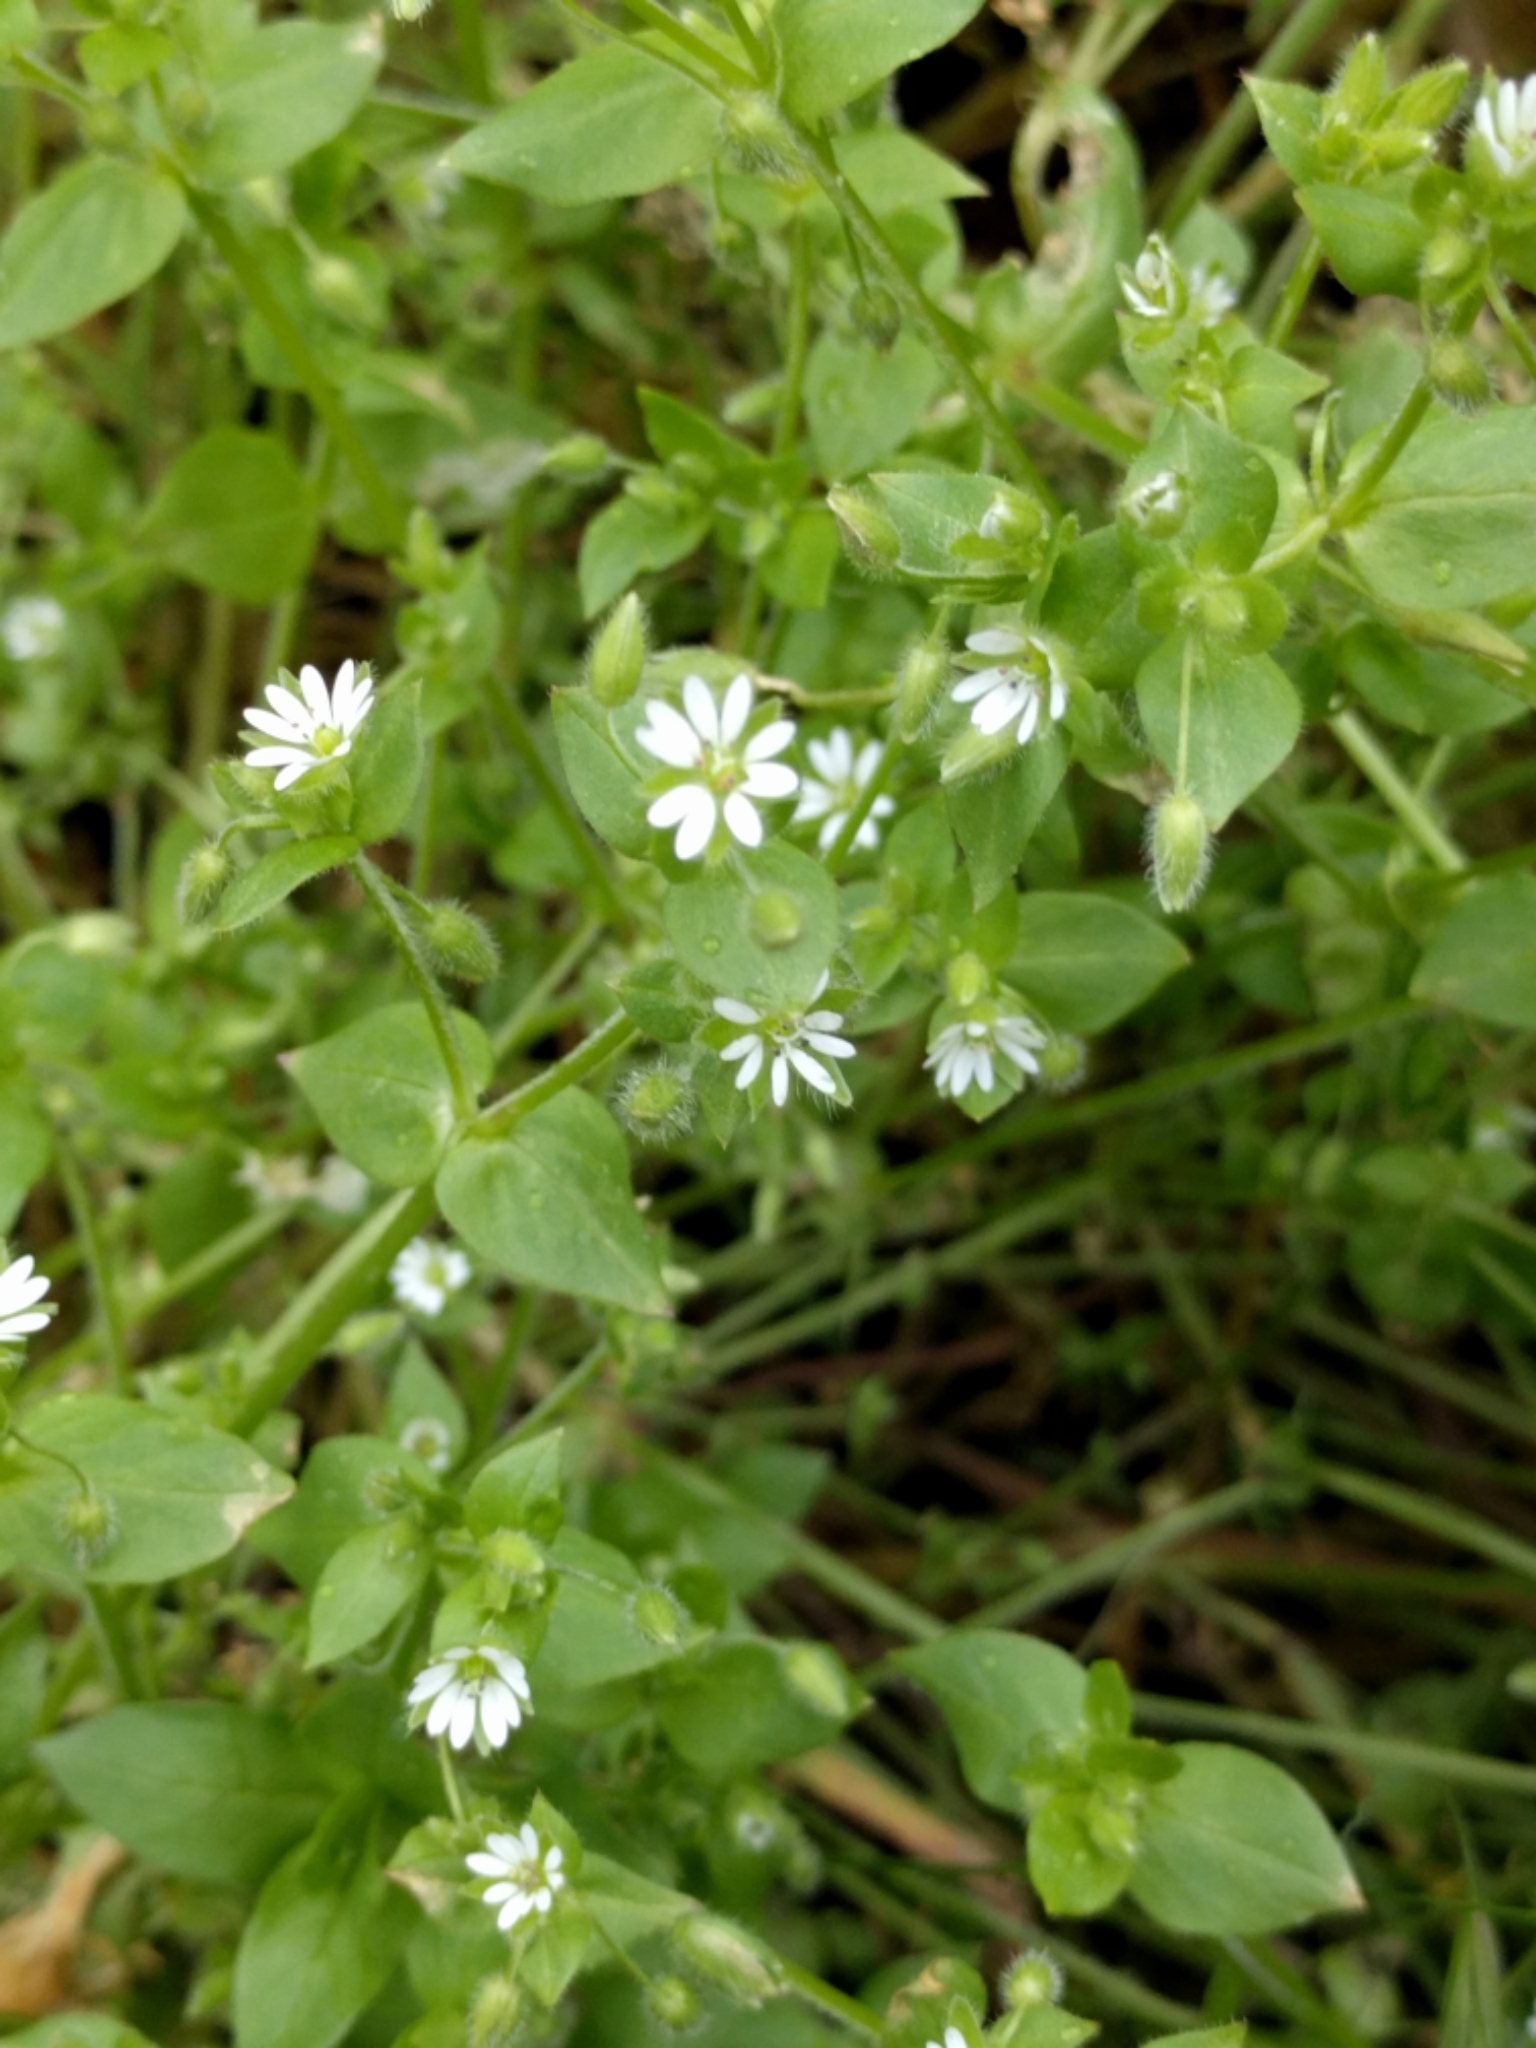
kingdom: Plantae
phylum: Tracheophyta
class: Magnoliopsida
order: Caryophyllales
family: Caryophyllaceae
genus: Stellaria
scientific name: Stellaria media
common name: Common chickweed
